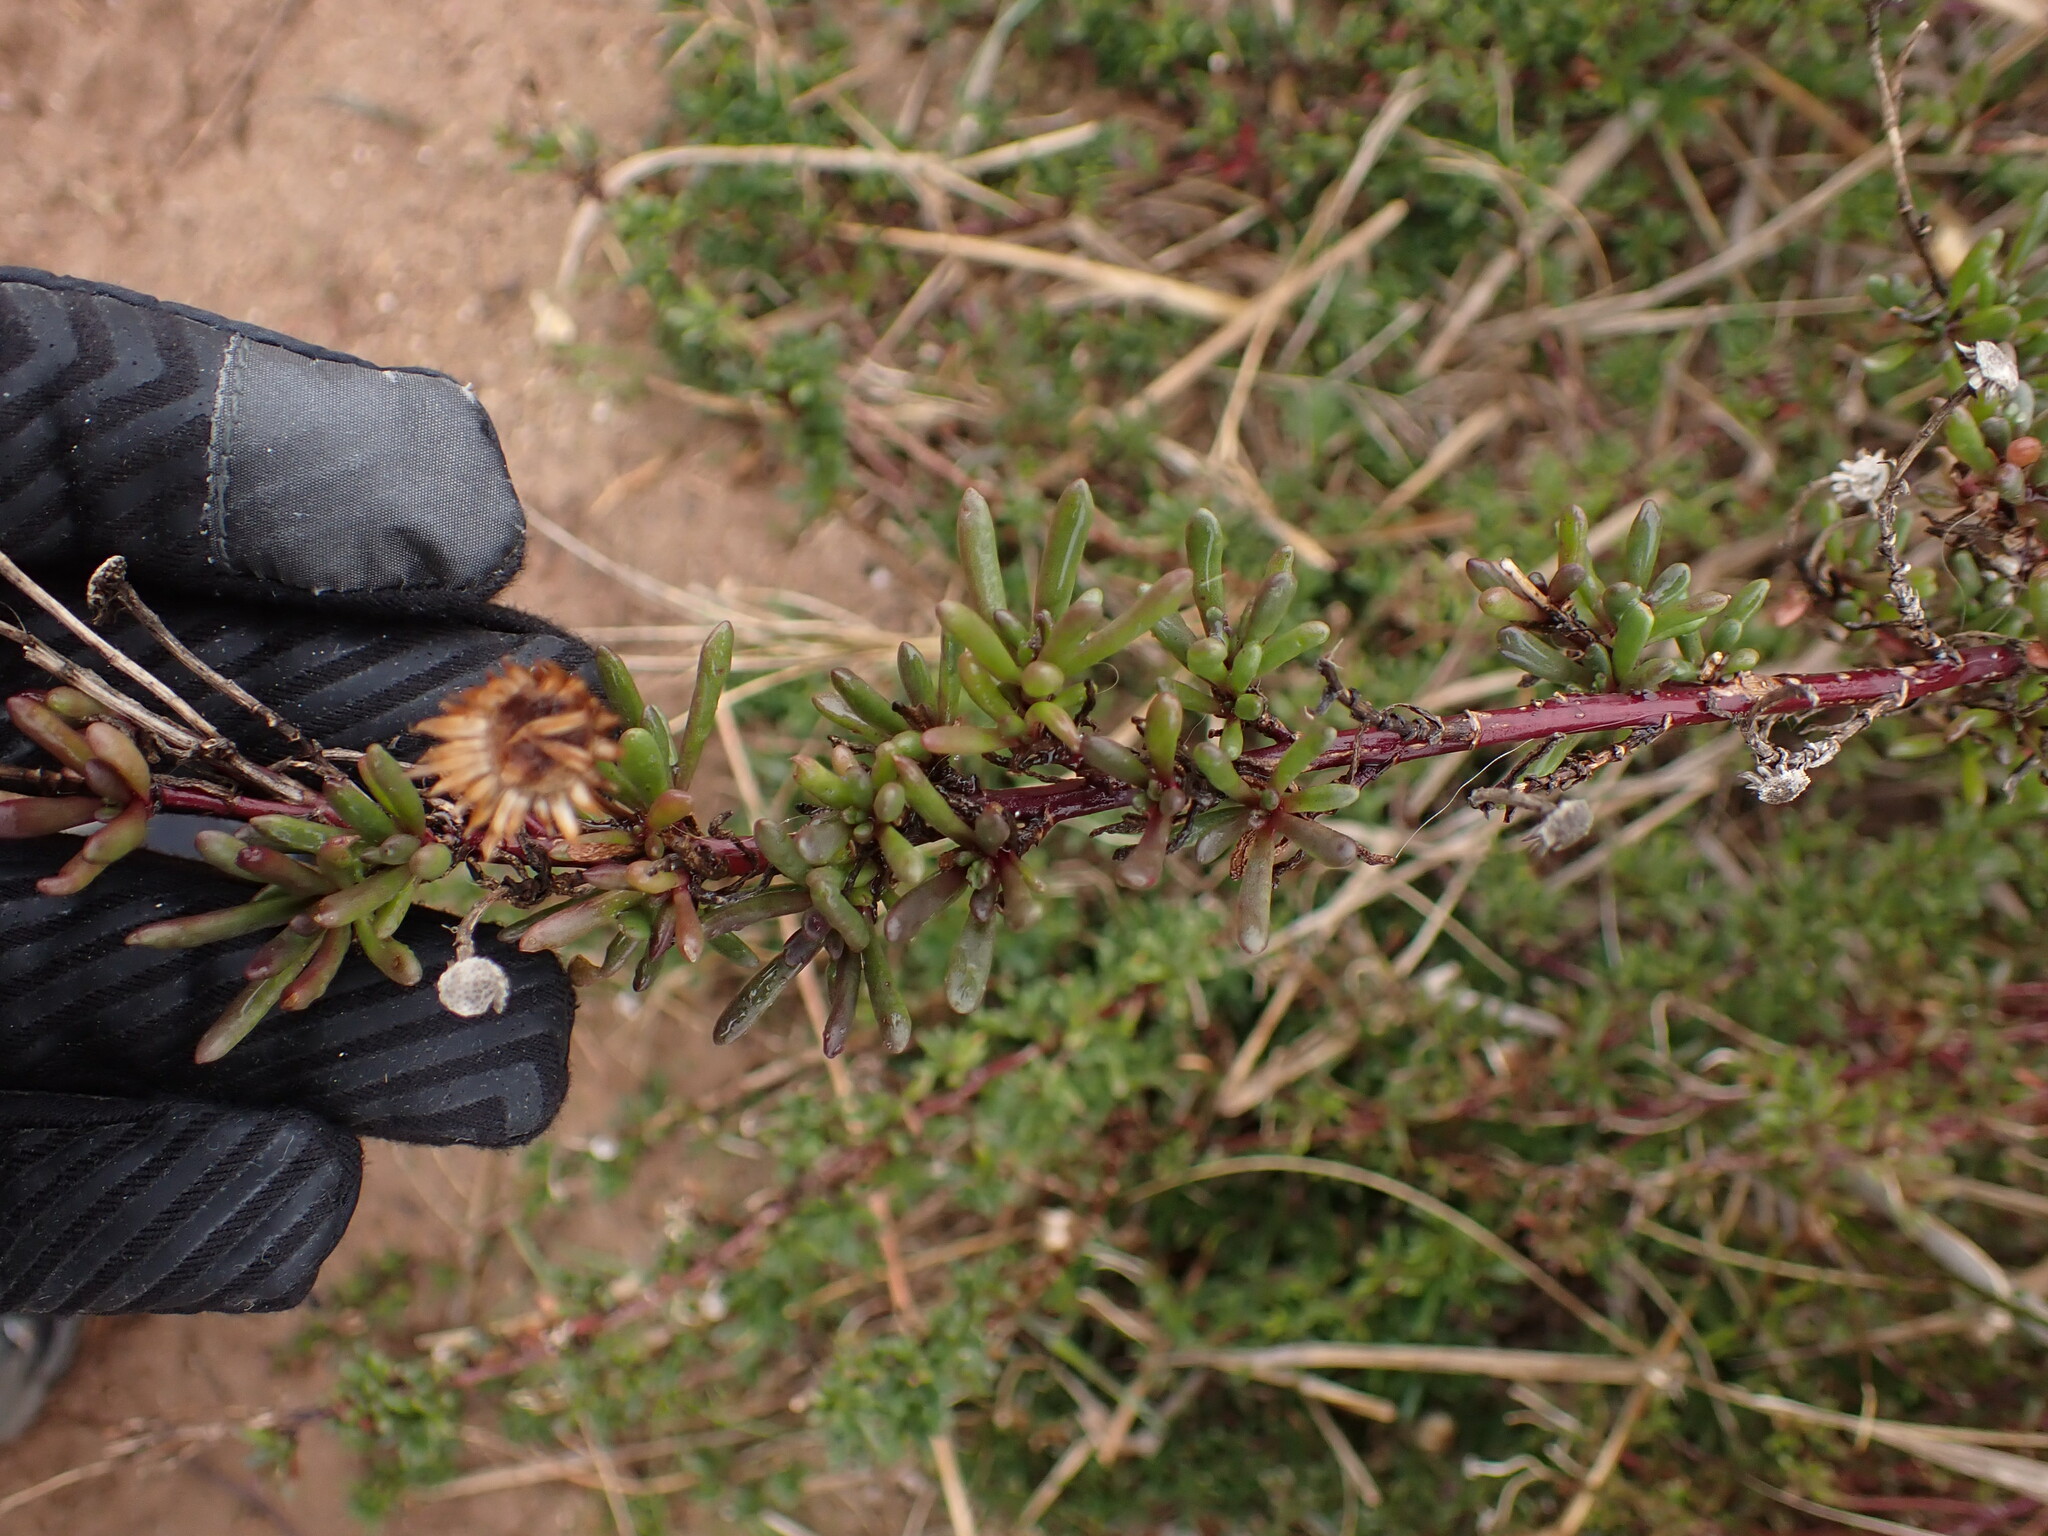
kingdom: Plantae
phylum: Tracheophyta
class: Magnoliopsida
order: Asterales
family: Asteraceae
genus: Limbarda
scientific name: Limbarda crithmoides
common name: Golden samphire
